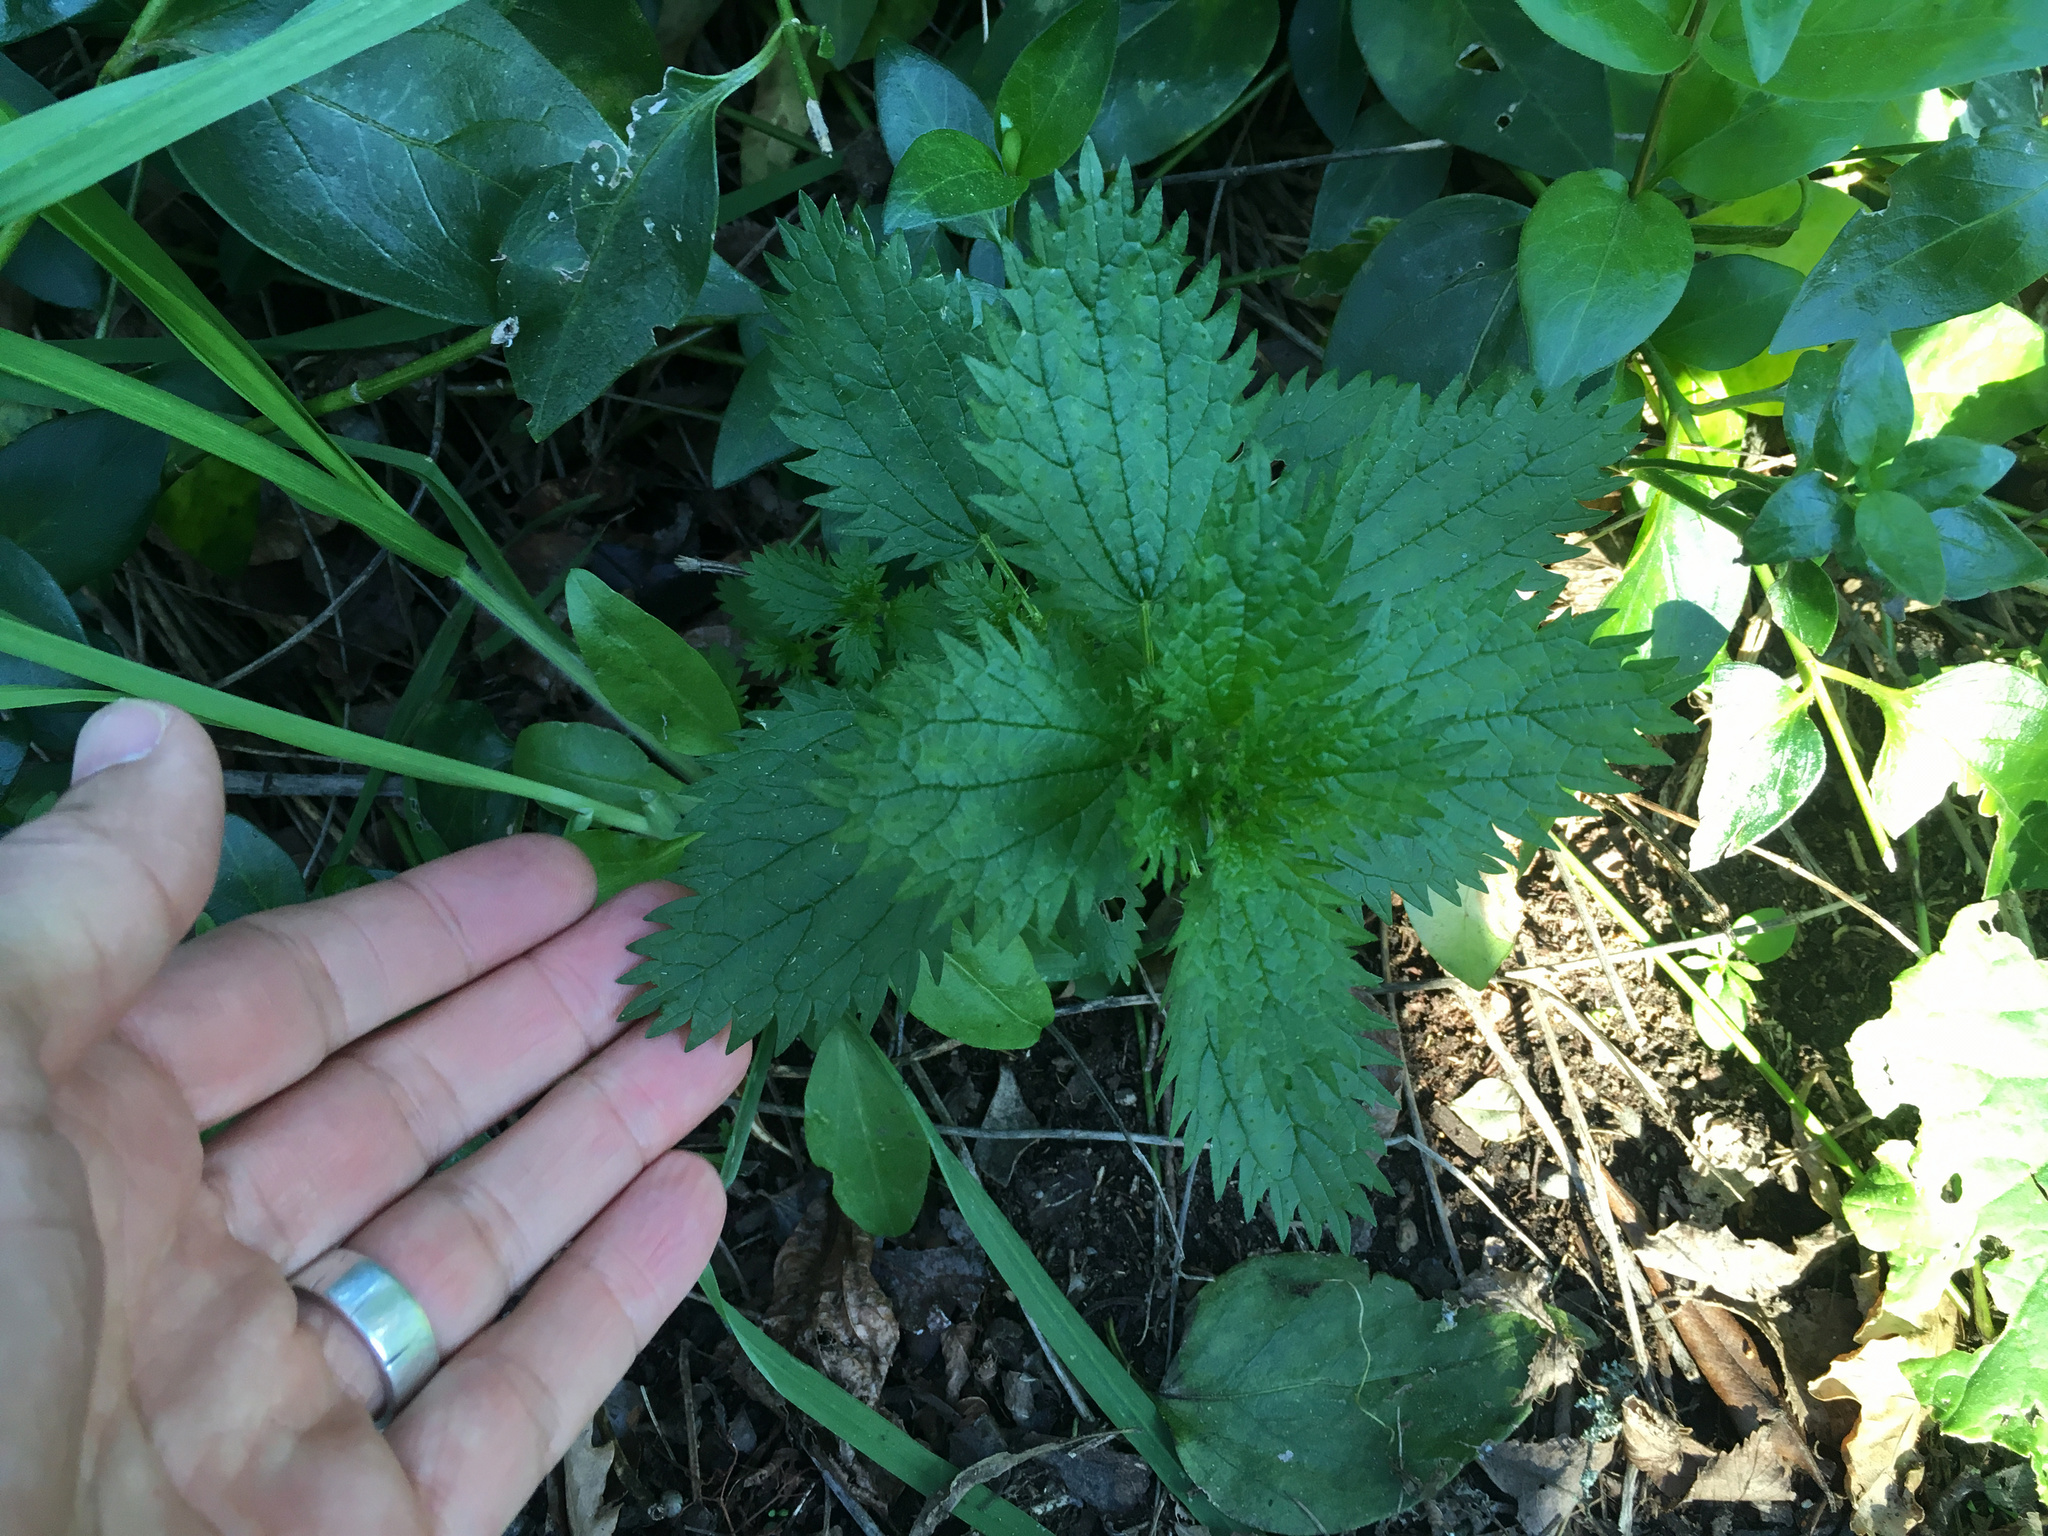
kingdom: Plantae
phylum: Tracheophyta
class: Magnoliopsida
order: Rosales
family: Urticaceae
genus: Urtica
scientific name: Urtica urens
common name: Dwarf nettle
